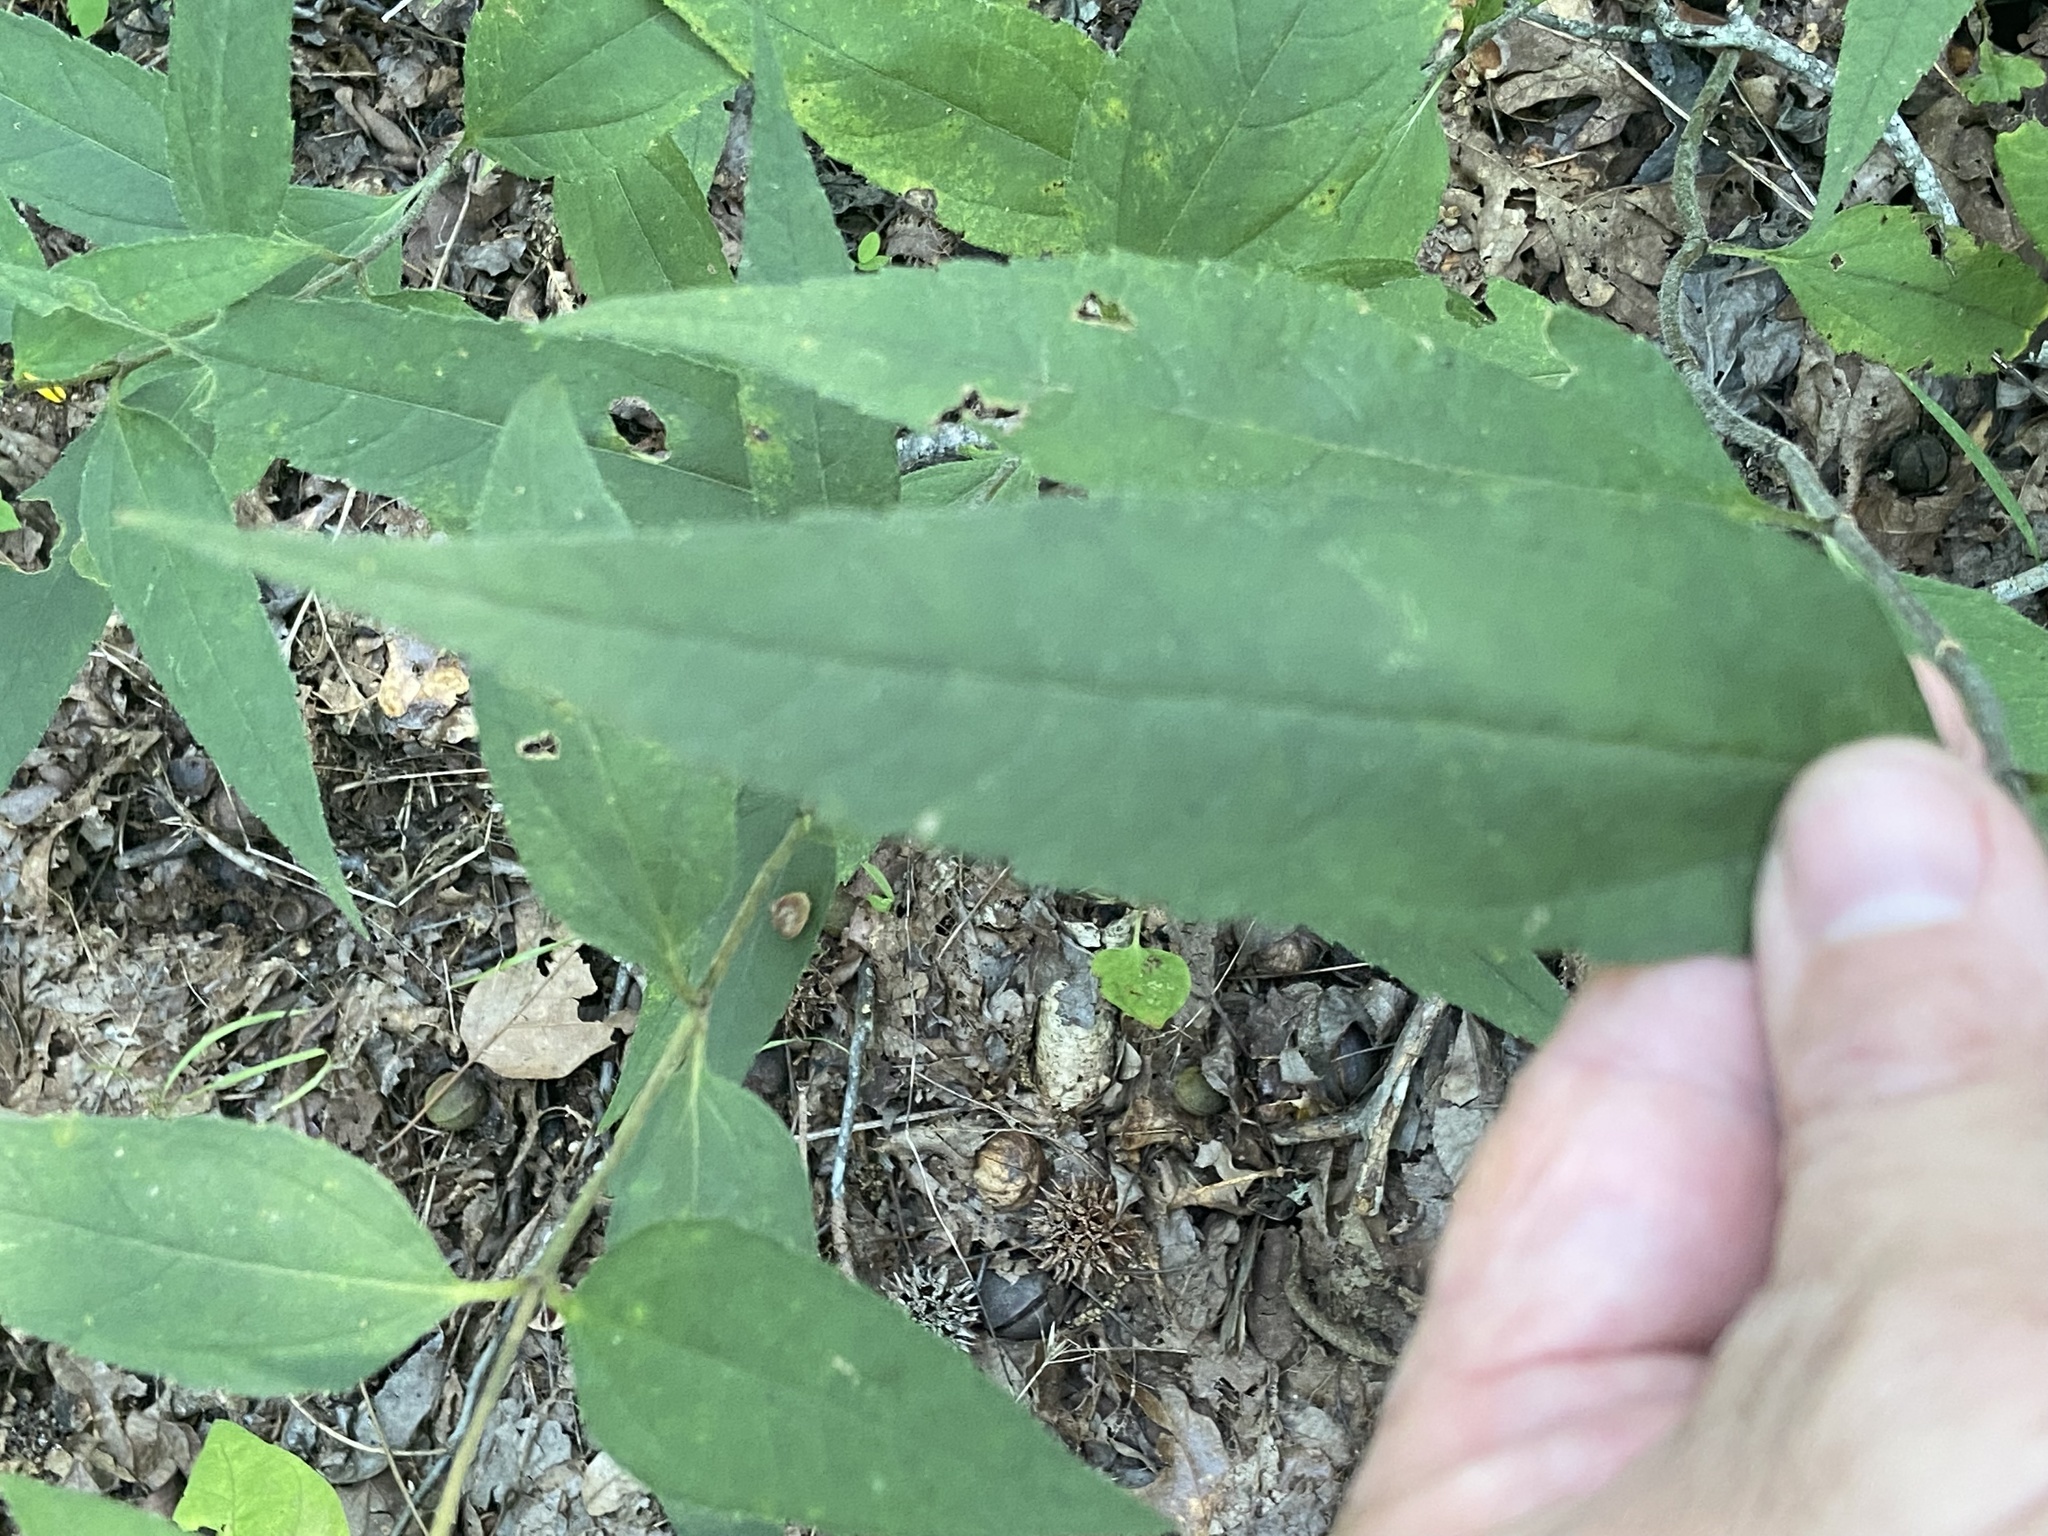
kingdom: Plantae
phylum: Tracheophyta
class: Magnoliopsida
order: Asterales
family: Asteraceae
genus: Helianthus
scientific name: Helianthus hirsutus
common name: Hairy sunflower
